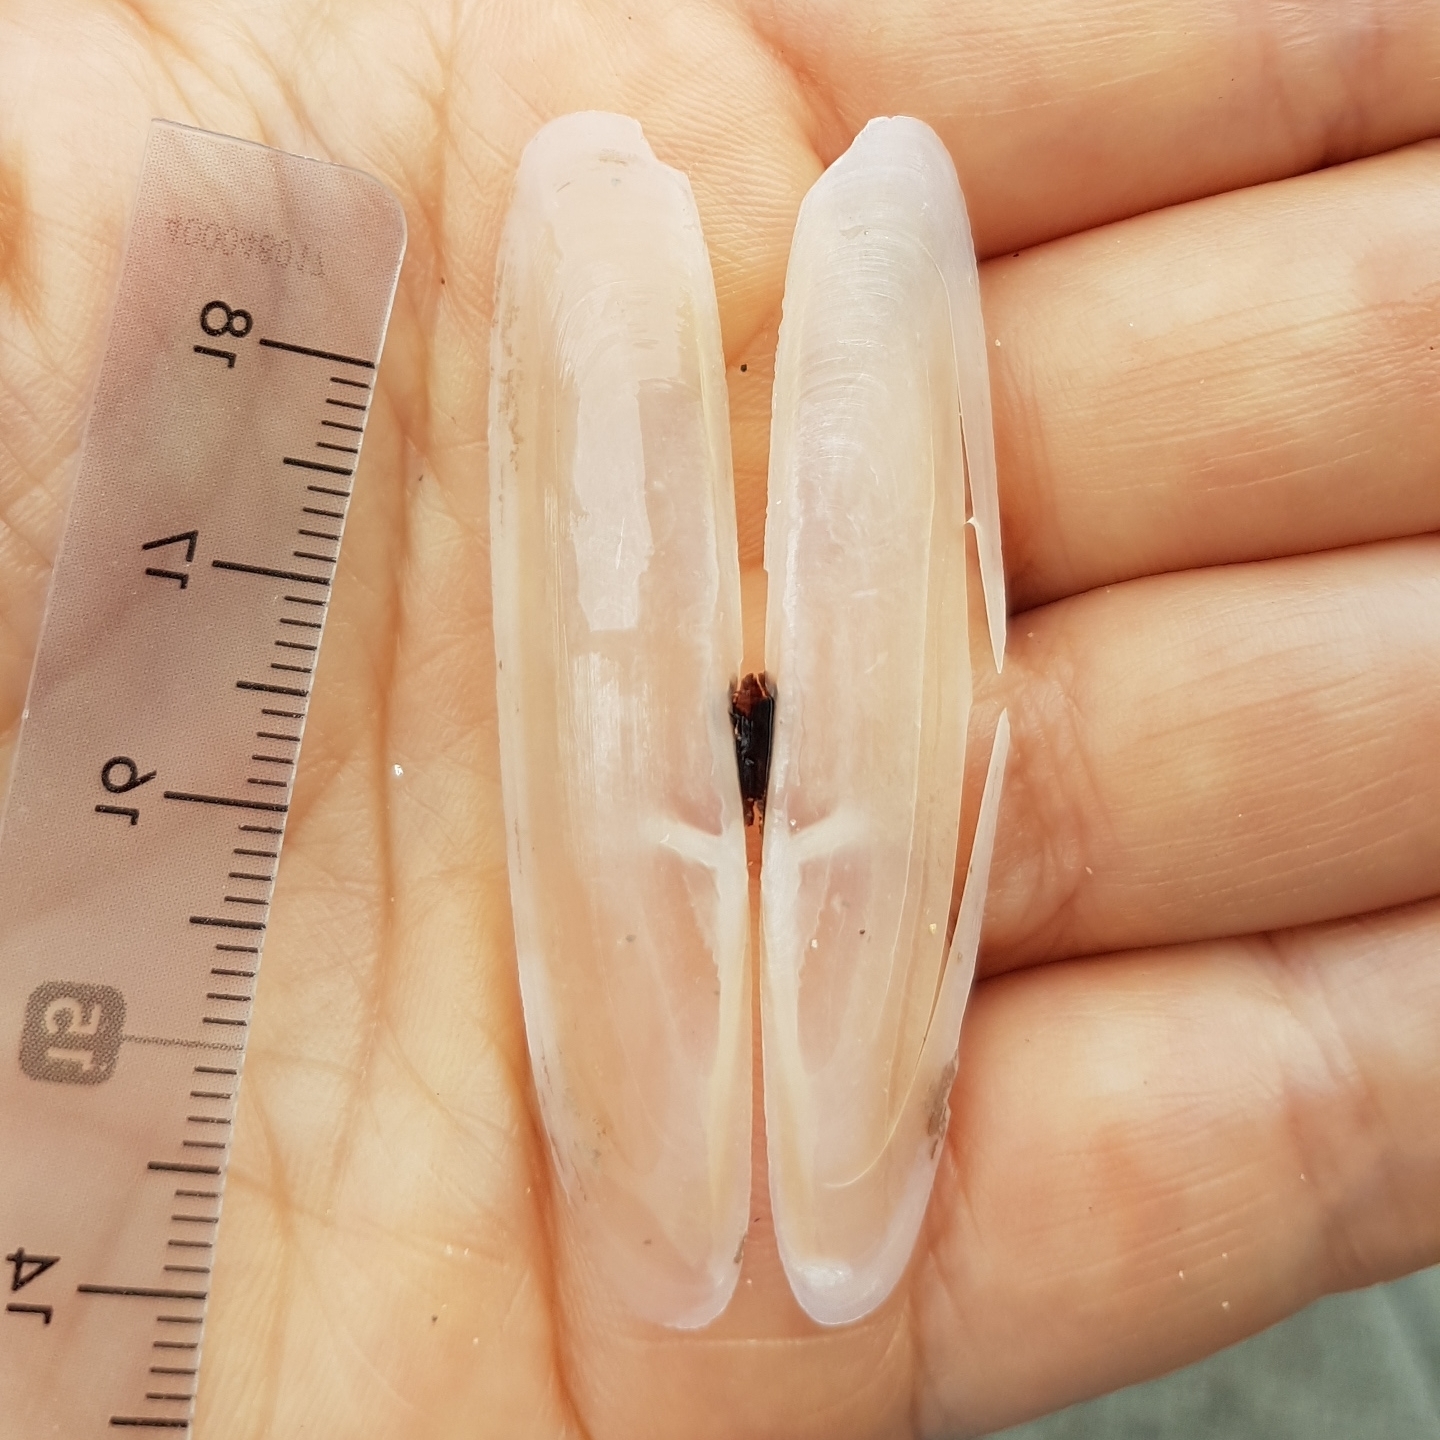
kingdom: Animalia
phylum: Mollusca
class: Bivalvia
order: Adapedonta
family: Pharidae
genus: Pharus
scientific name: Pharus legumen
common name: Bean razor clam
